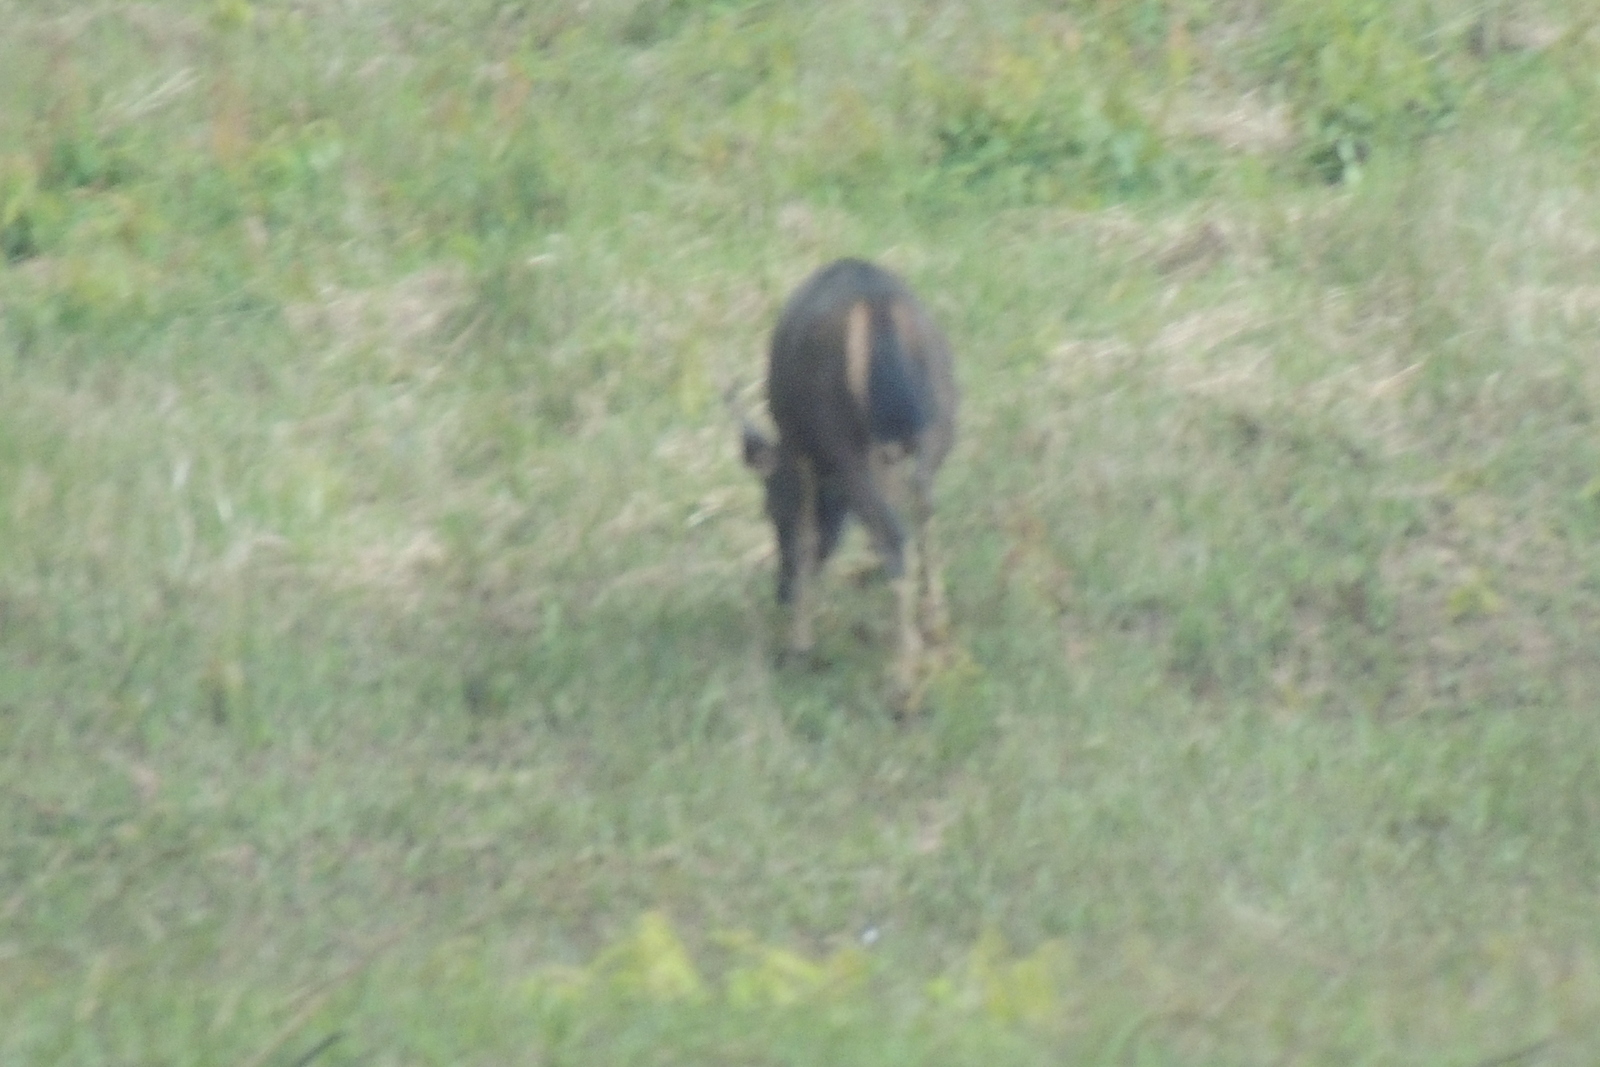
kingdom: Animalia
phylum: Chordata
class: Mammalia
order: Artiodactyla
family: Cervidae
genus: Rusa
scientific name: Rusa unicolor
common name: Sambar
